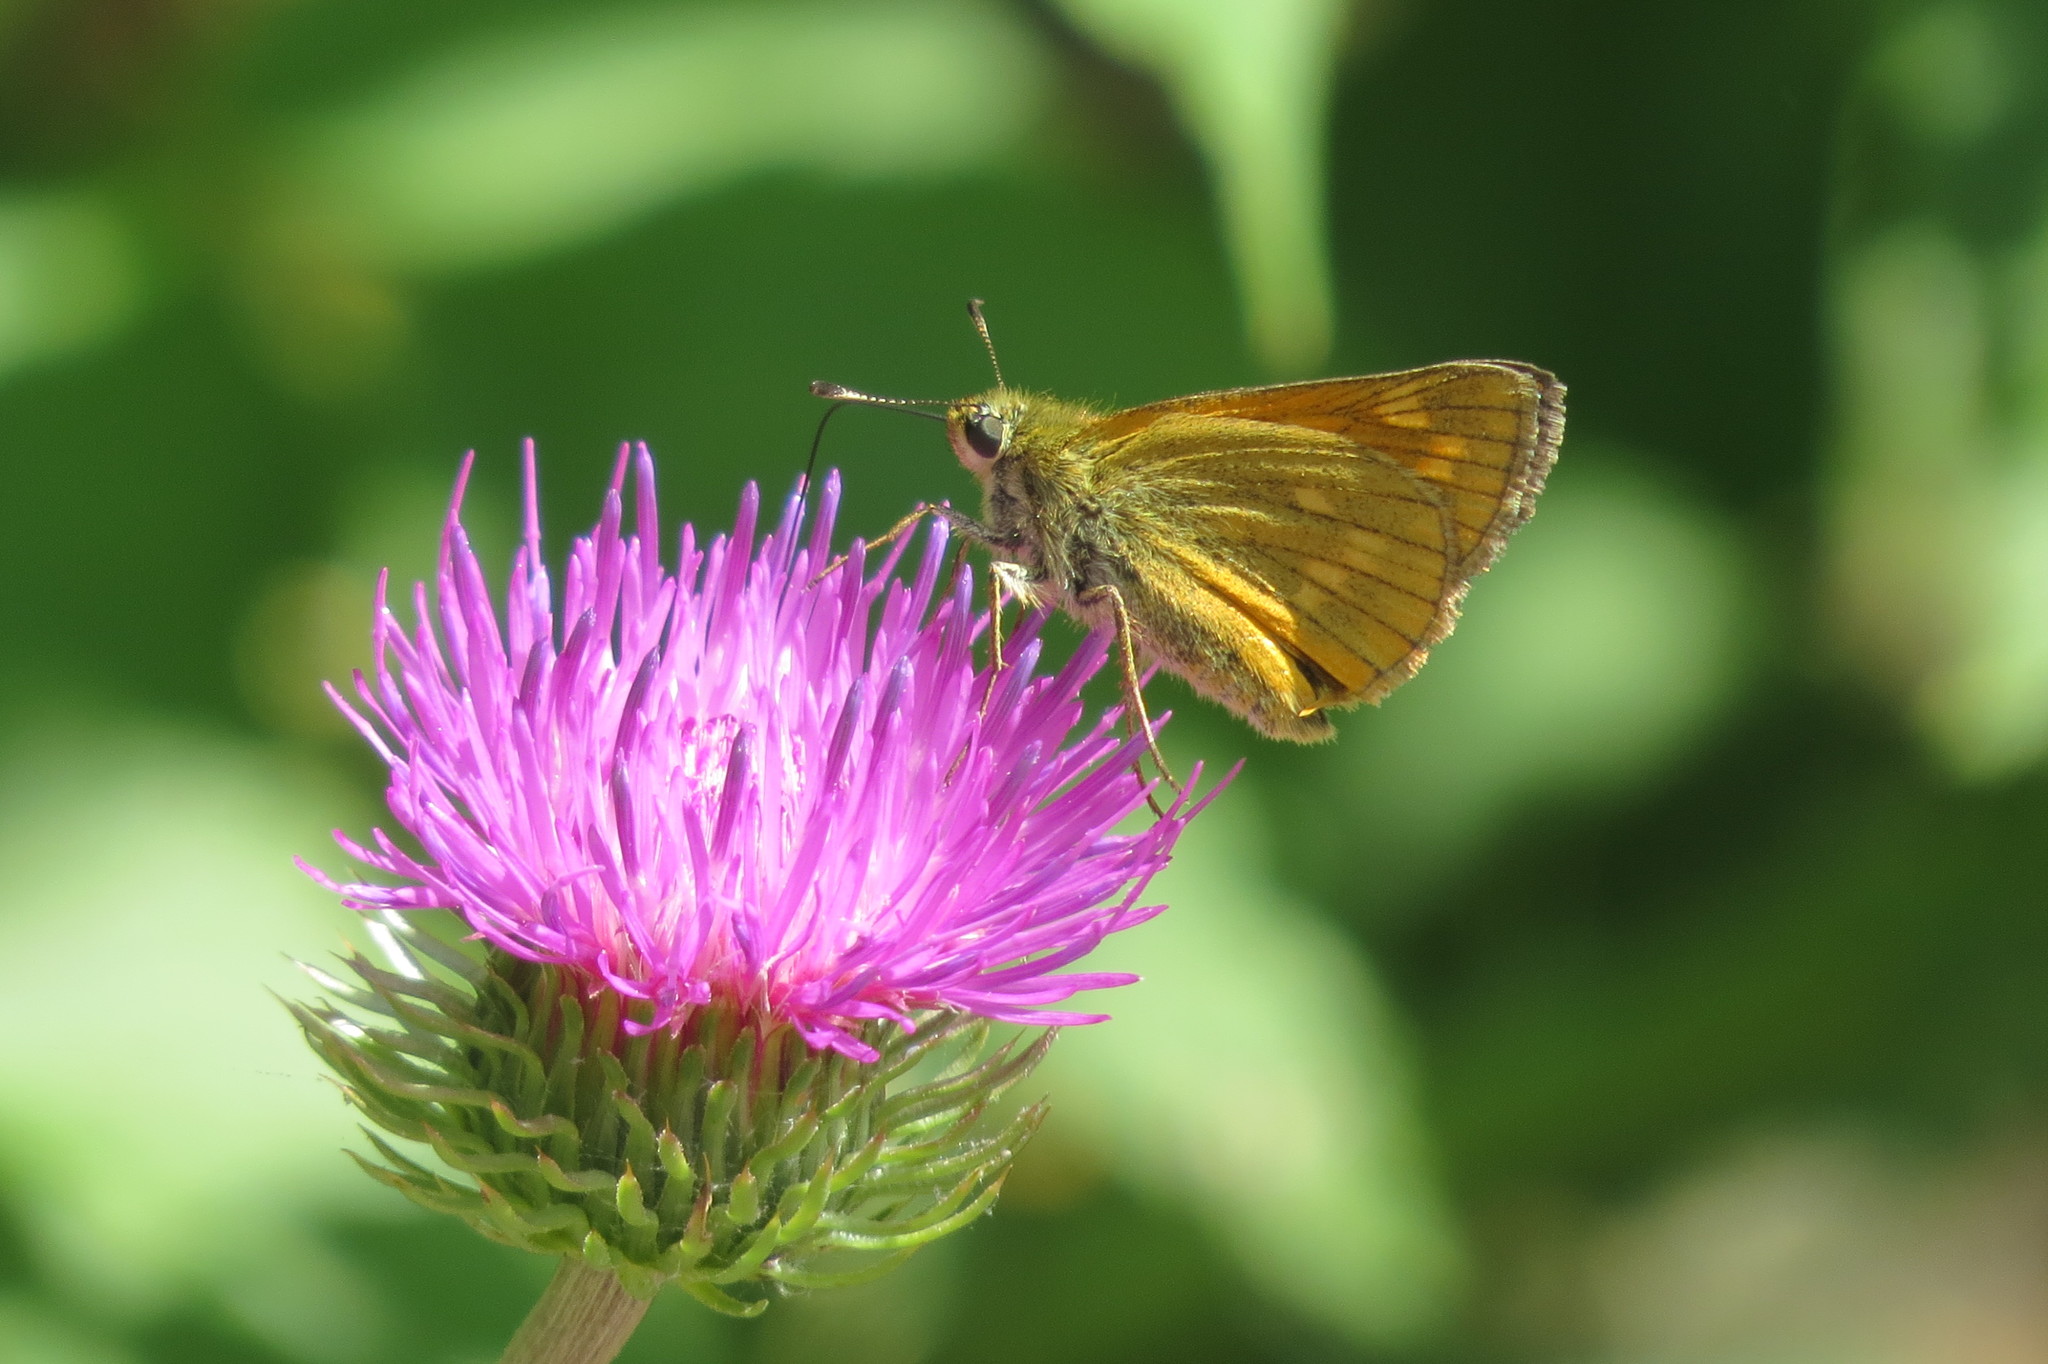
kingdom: Animalia
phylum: Arthropoda
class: Insecta
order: Lepidoptera
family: Hesperiidae
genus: Ochlodes
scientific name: Ochlodes venata
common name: Large skipper
